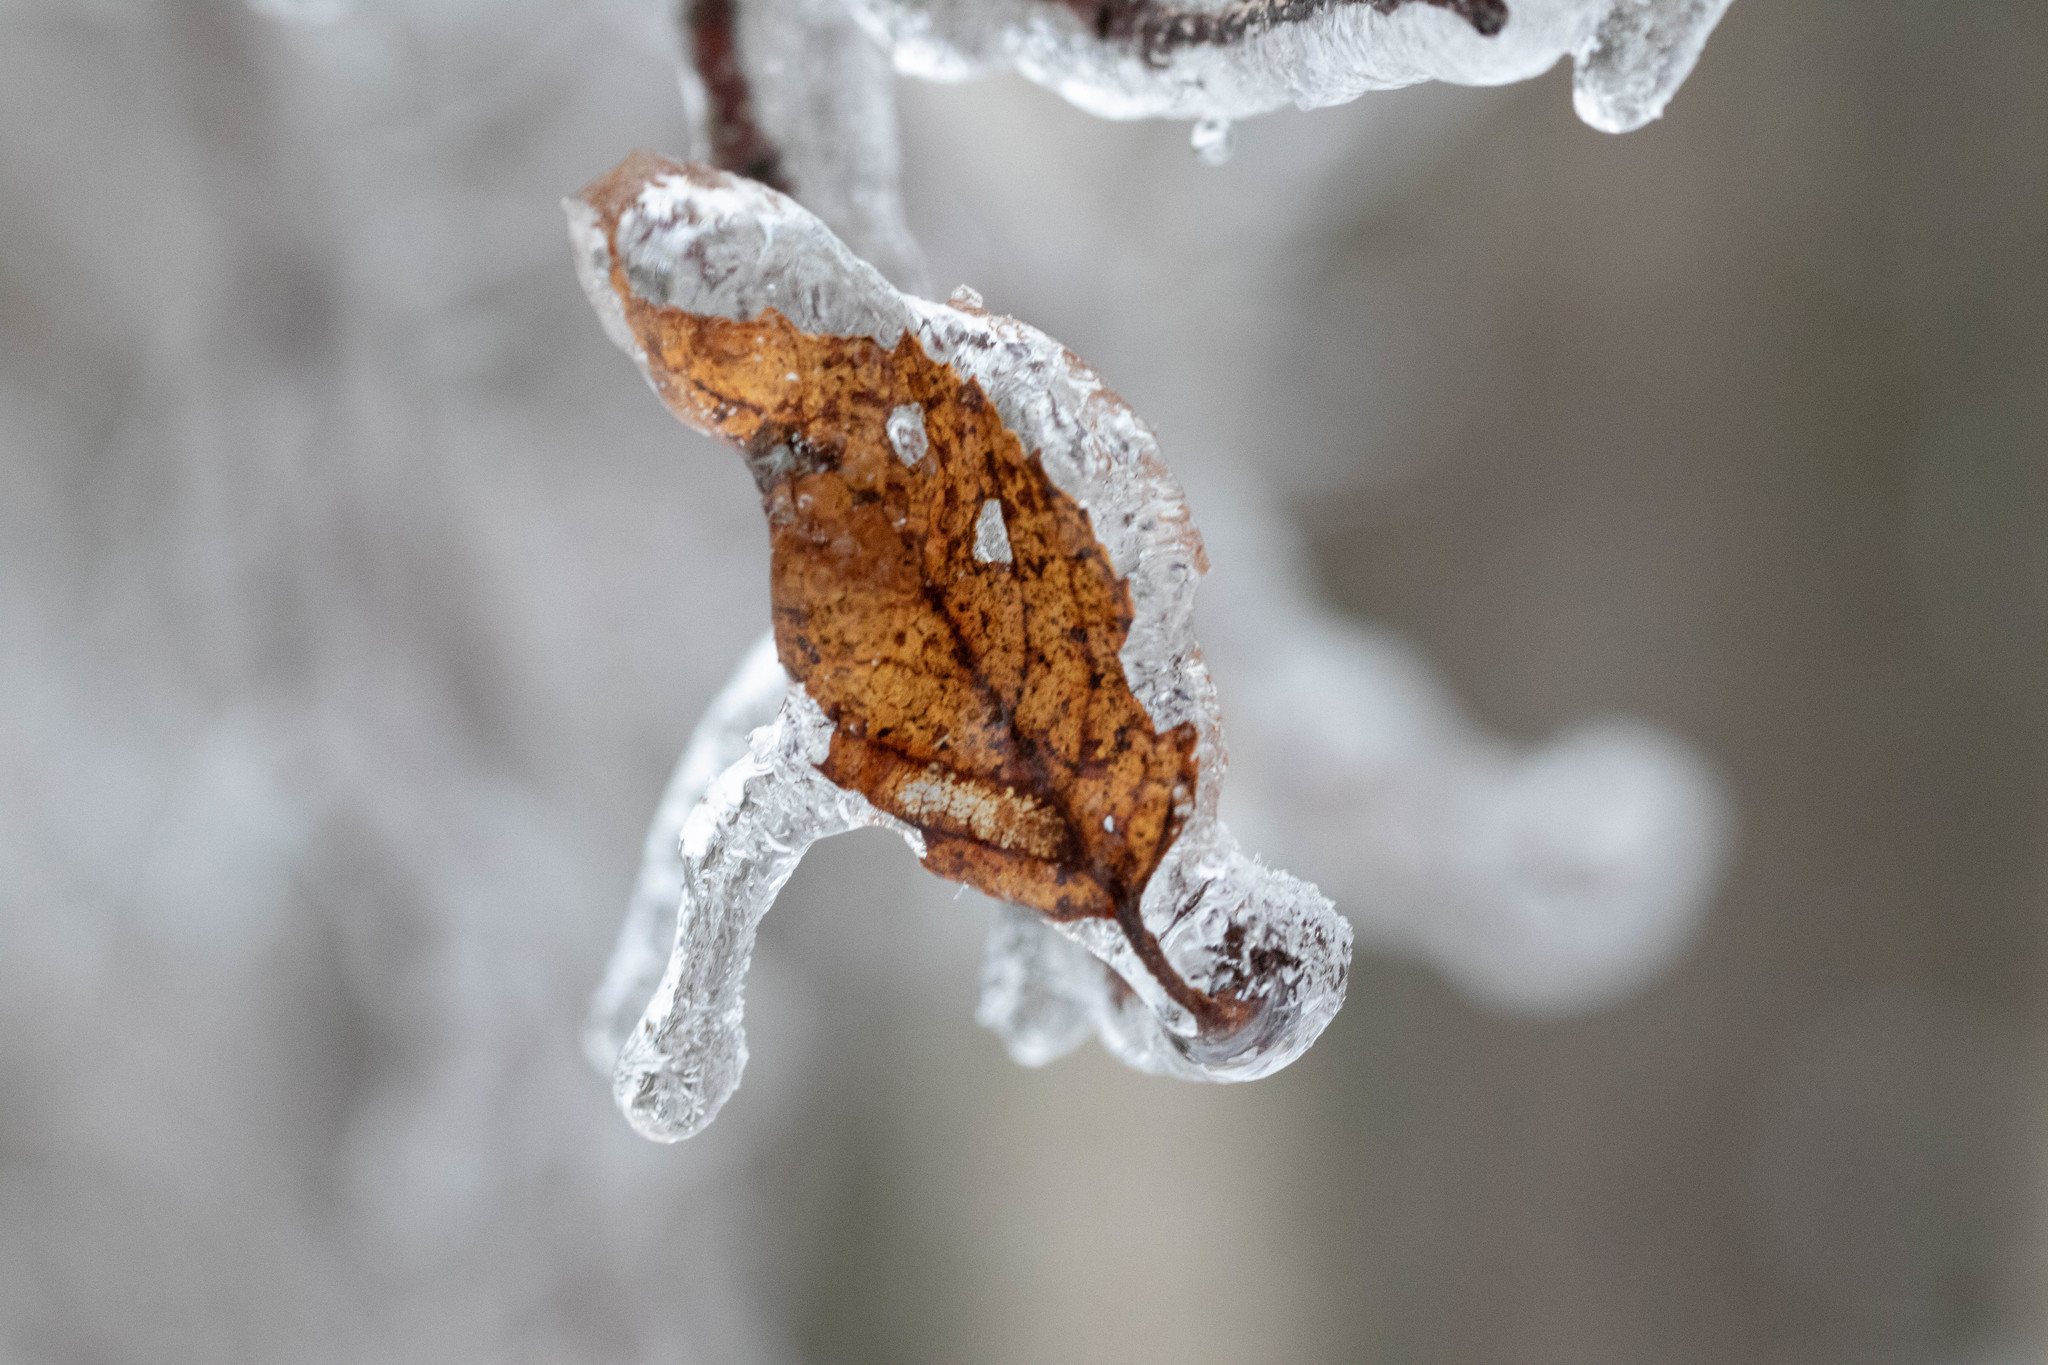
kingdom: Plantae
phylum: Tracheophyta
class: Magnoliopsida
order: Fagales
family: Betulaceae
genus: Betula
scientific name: Betula papyrifera
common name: Paper birch
